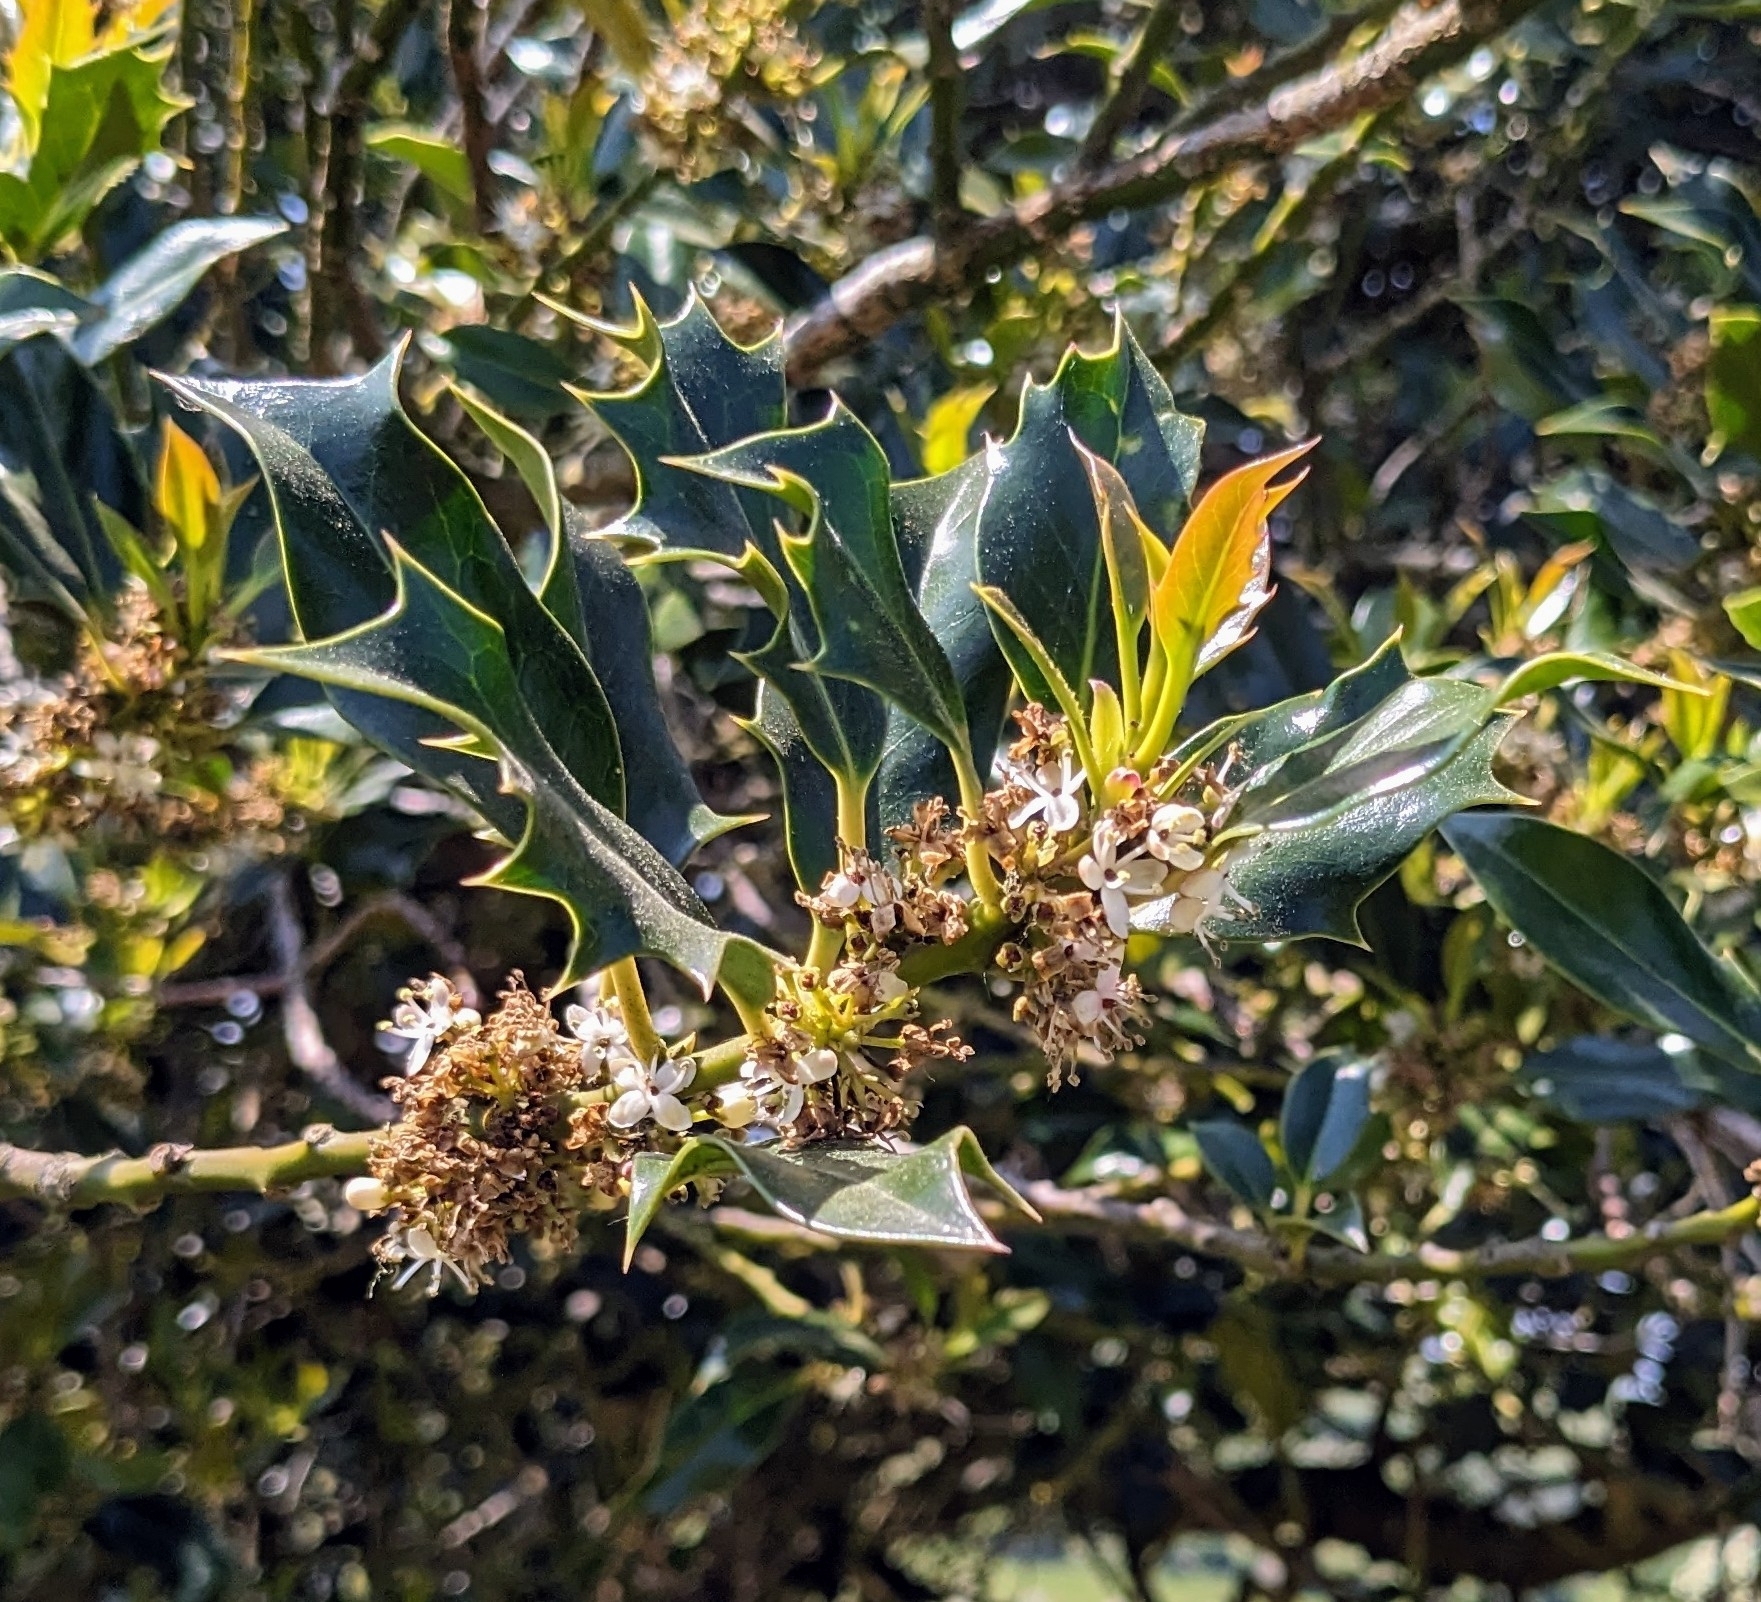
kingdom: Plantae
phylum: Tracheophyta
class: Magnoliopsida
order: Aquifoliales
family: Aquifoliaceae
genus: Ilex
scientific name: Ilex aquifolium
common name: English holly
